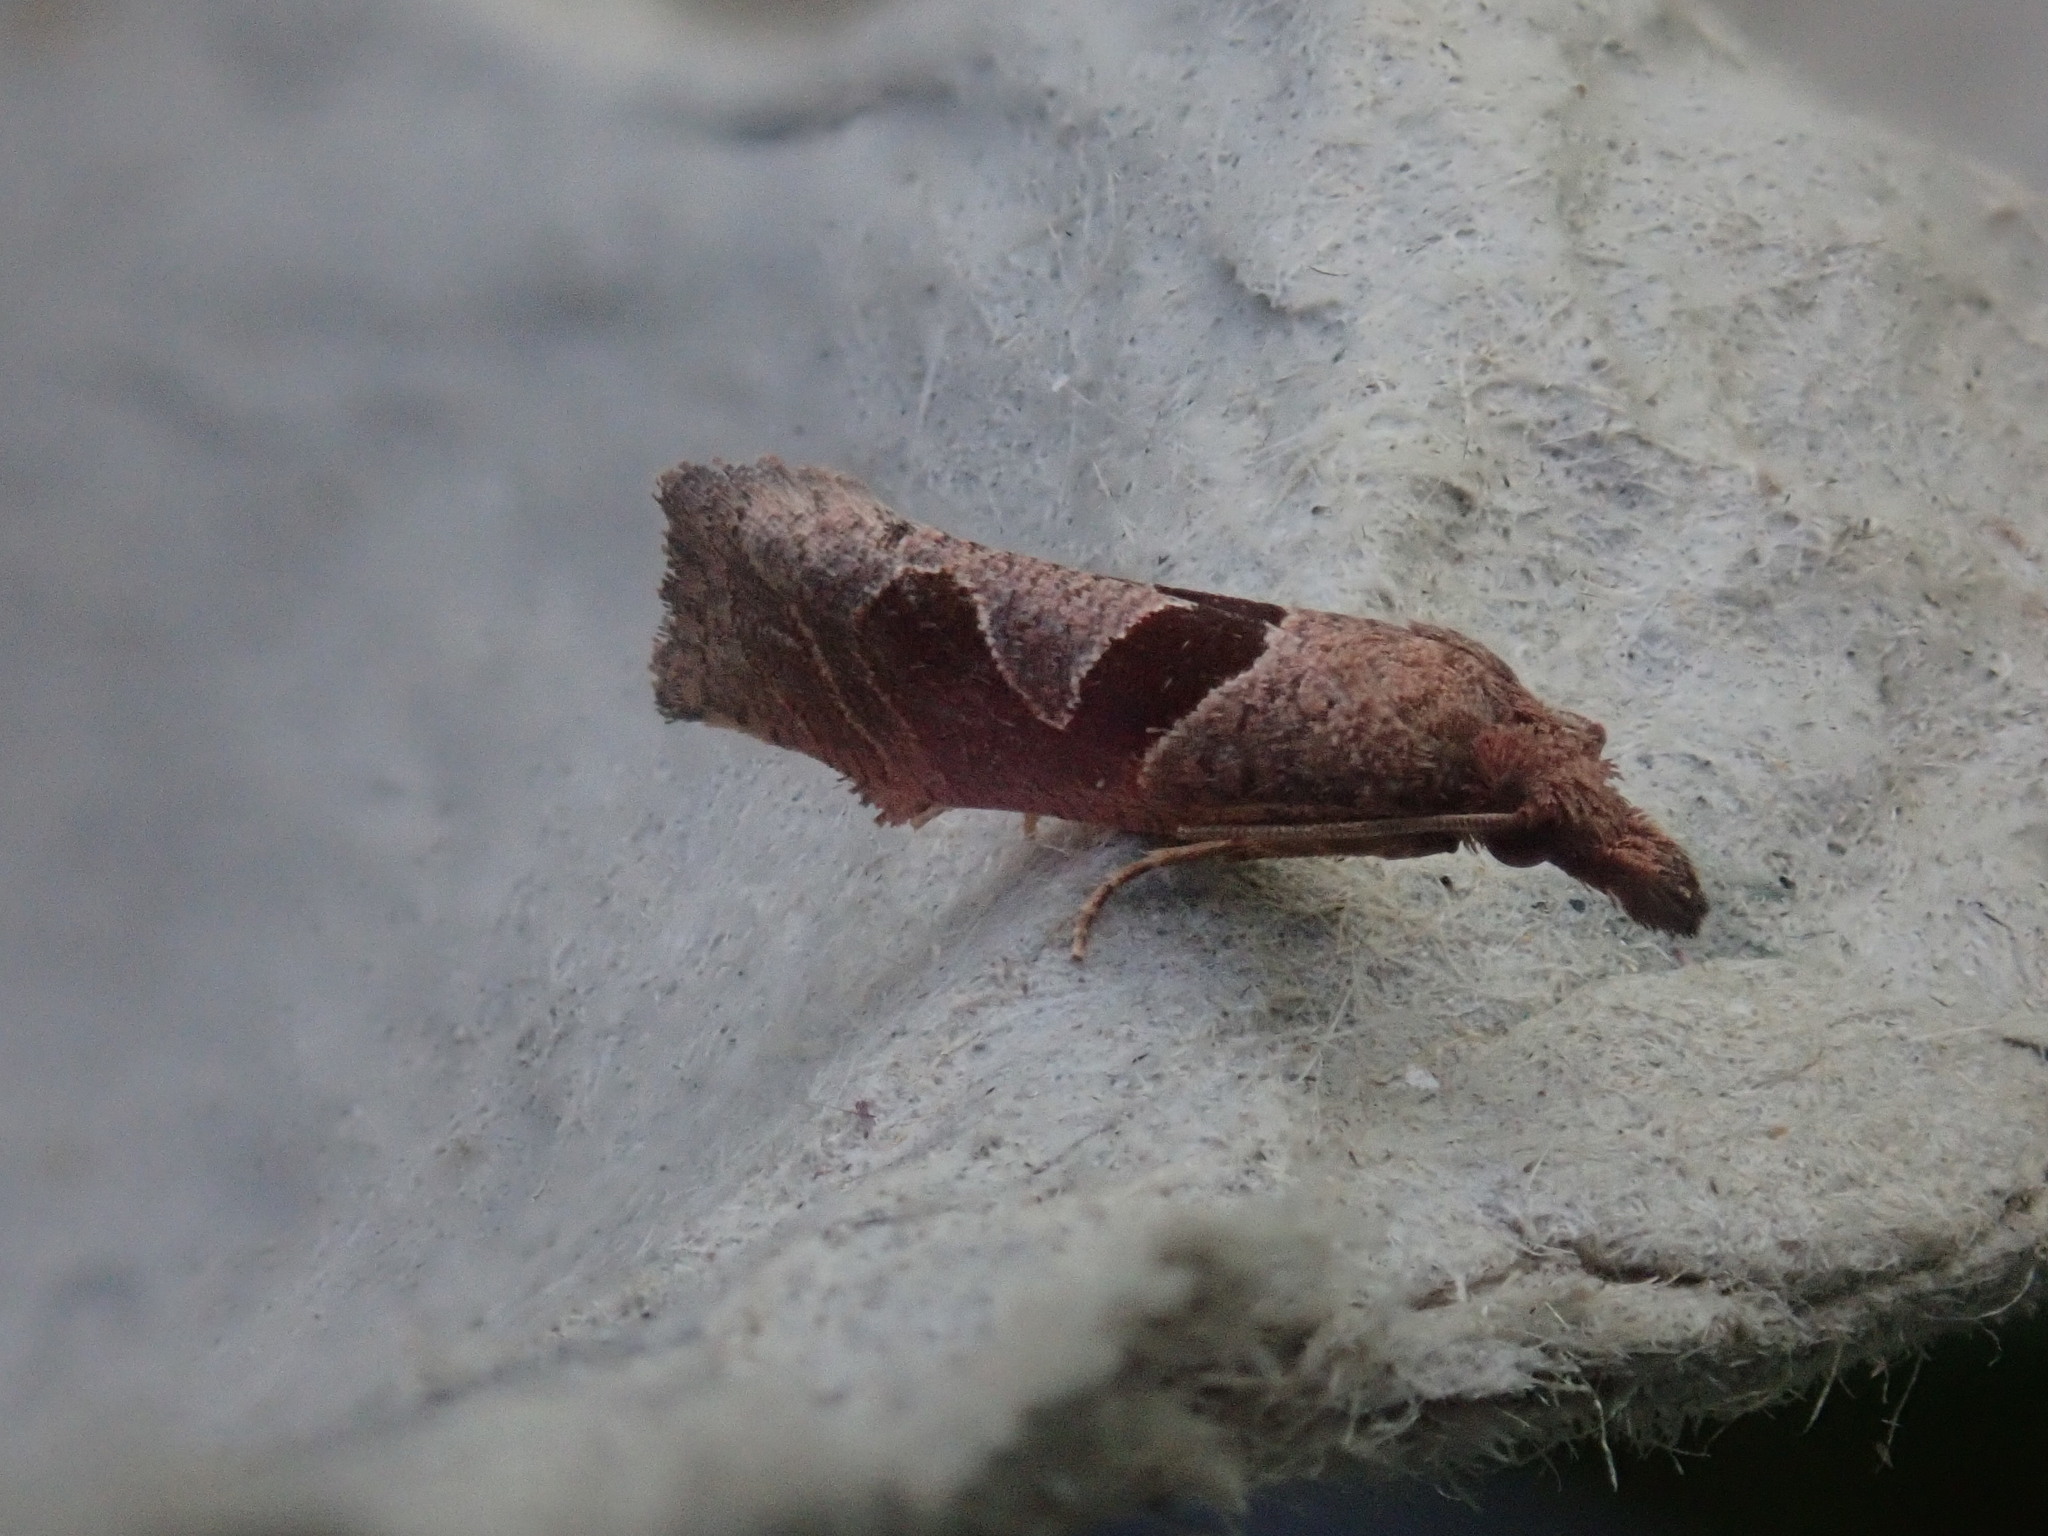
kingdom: Animalia
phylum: Arthropoda
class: Insecta
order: Lepidoptera
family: Tortricidae
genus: Pelochrista
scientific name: Pelochrista similiana
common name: Similar eucosma
